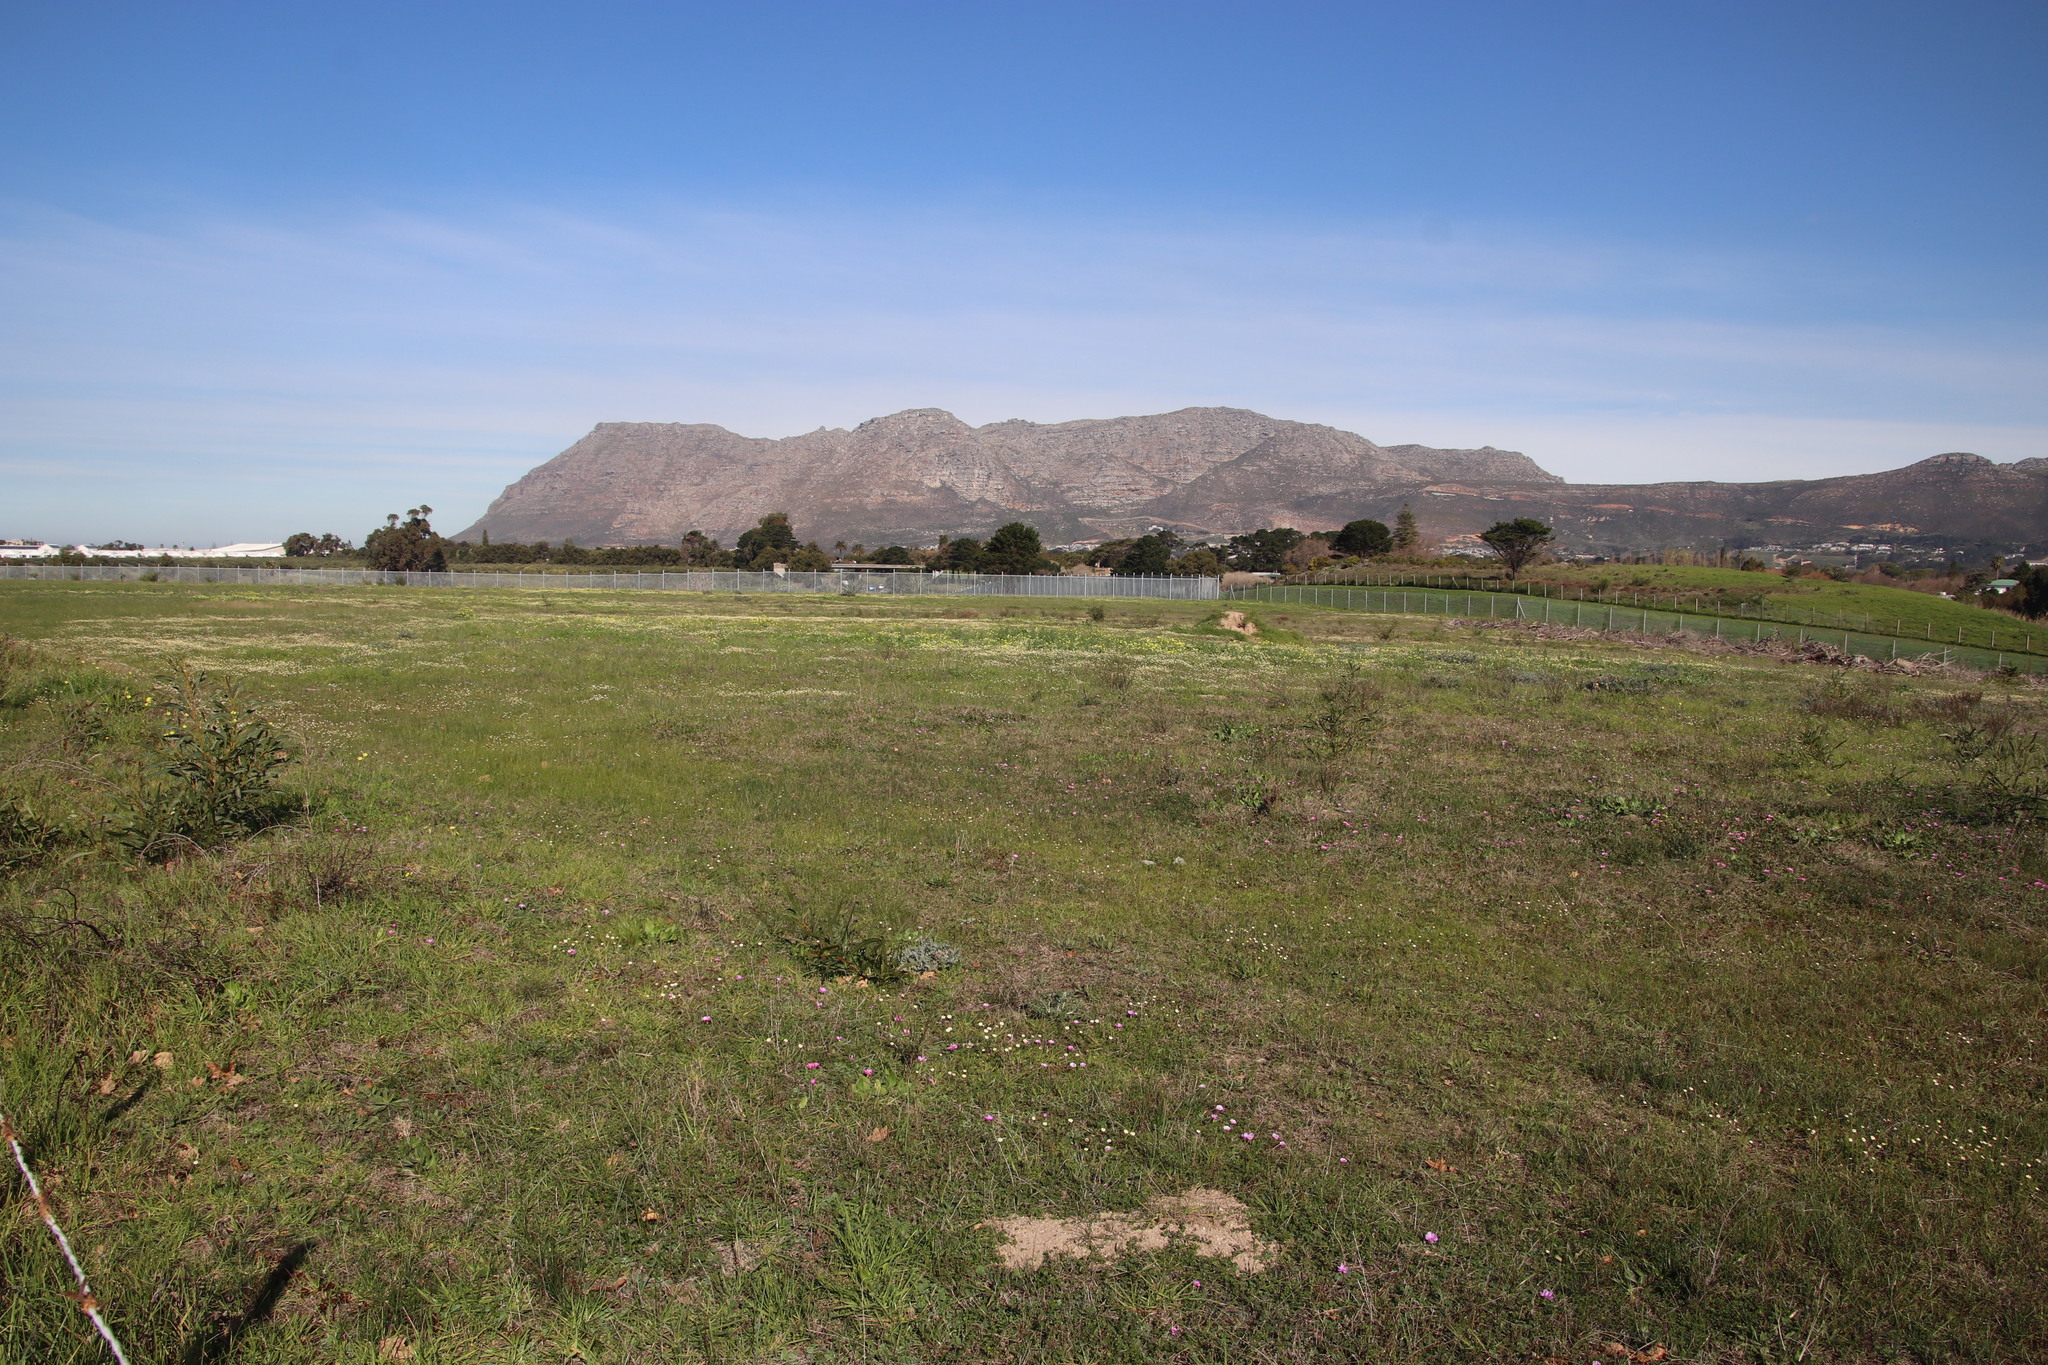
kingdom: Plantae
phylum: Tracheophyta
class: Magnoliopsida
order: Asterales
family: Asteraceae
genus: Cotula
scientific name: Cotula turbinata
